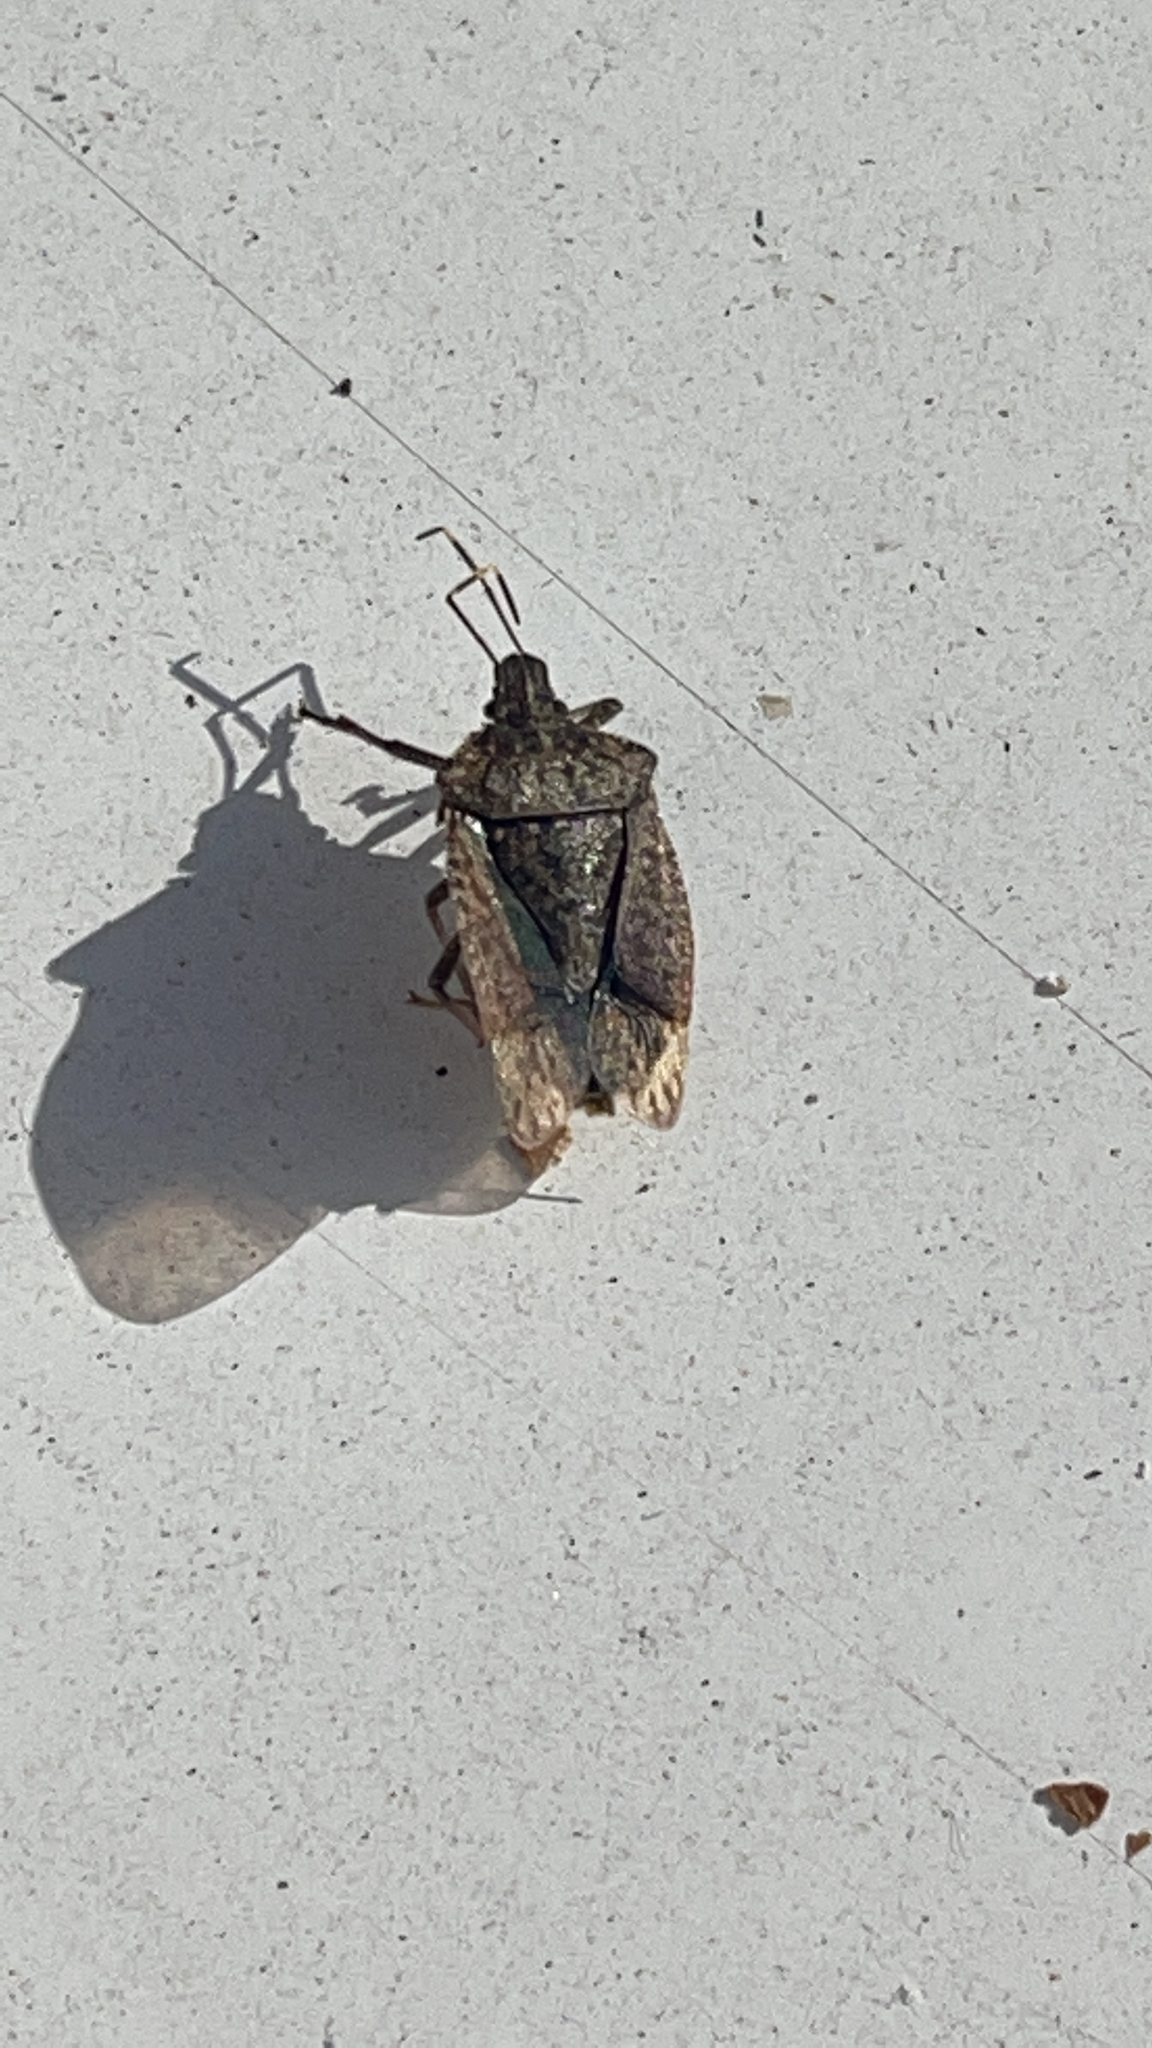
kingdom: Animalia
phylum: Arthropoda
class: Insecta
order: Hemiptera
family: Pentatomidae
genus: Halyomorpha
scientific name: Halyomorpha halys
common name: Brown marmorated stink bug
